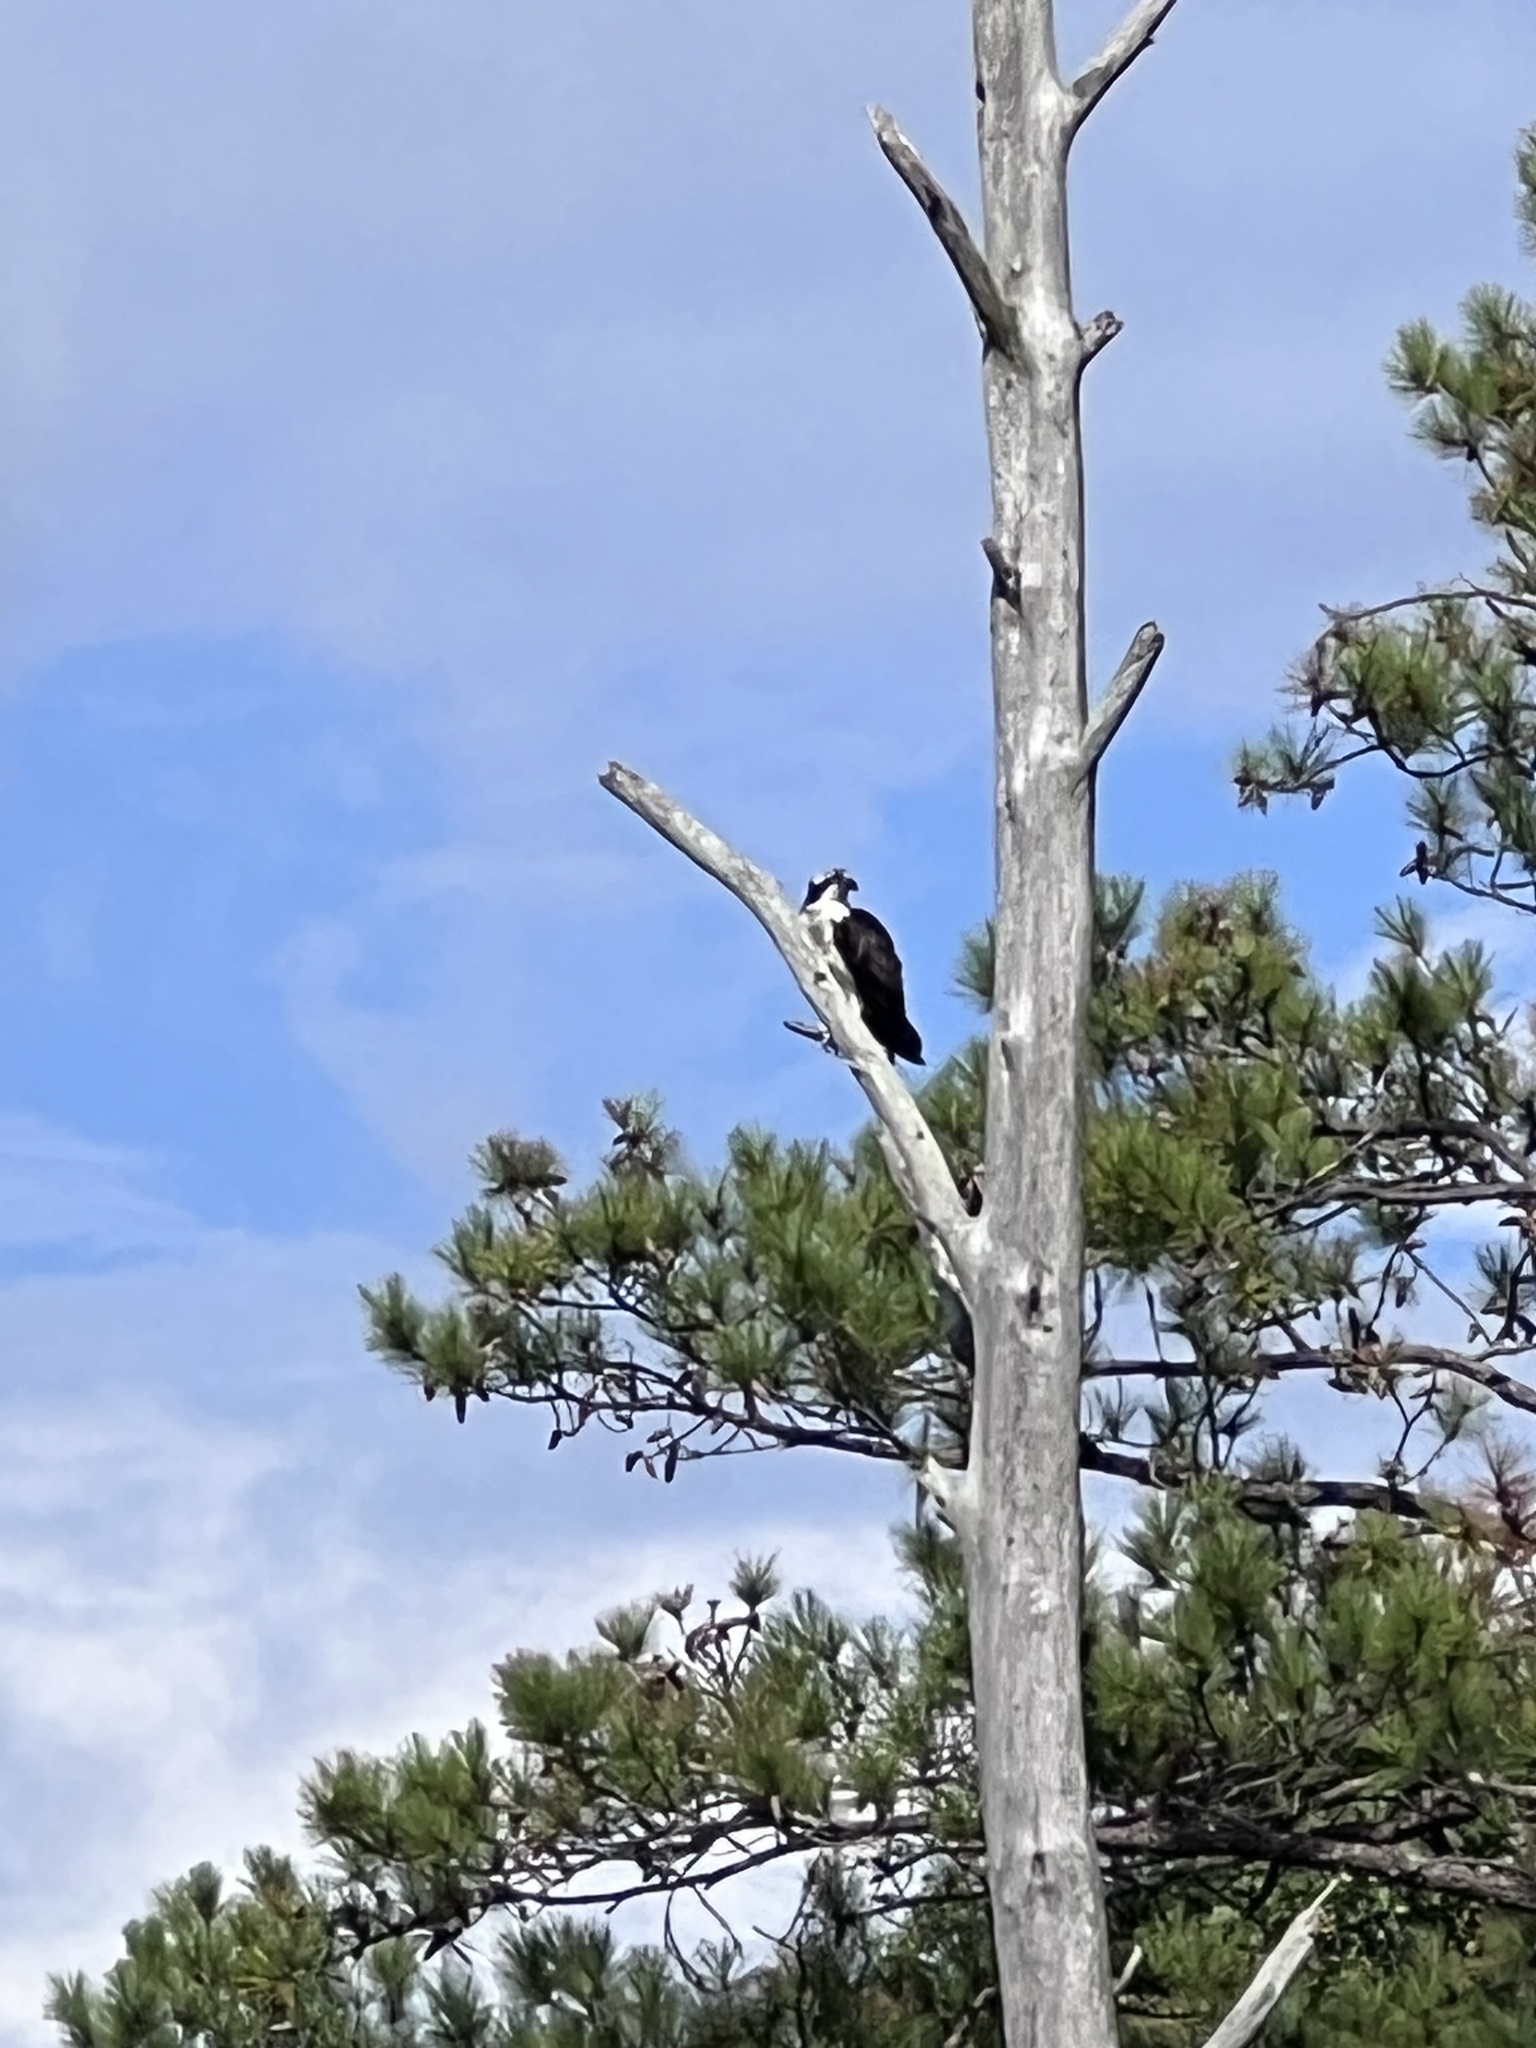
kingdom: Animalia
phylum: Chordata
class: Aves
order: Accipitriformes
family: Pandionidae
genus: Pandion
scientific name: Pandion haliaetus
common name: Osprey
